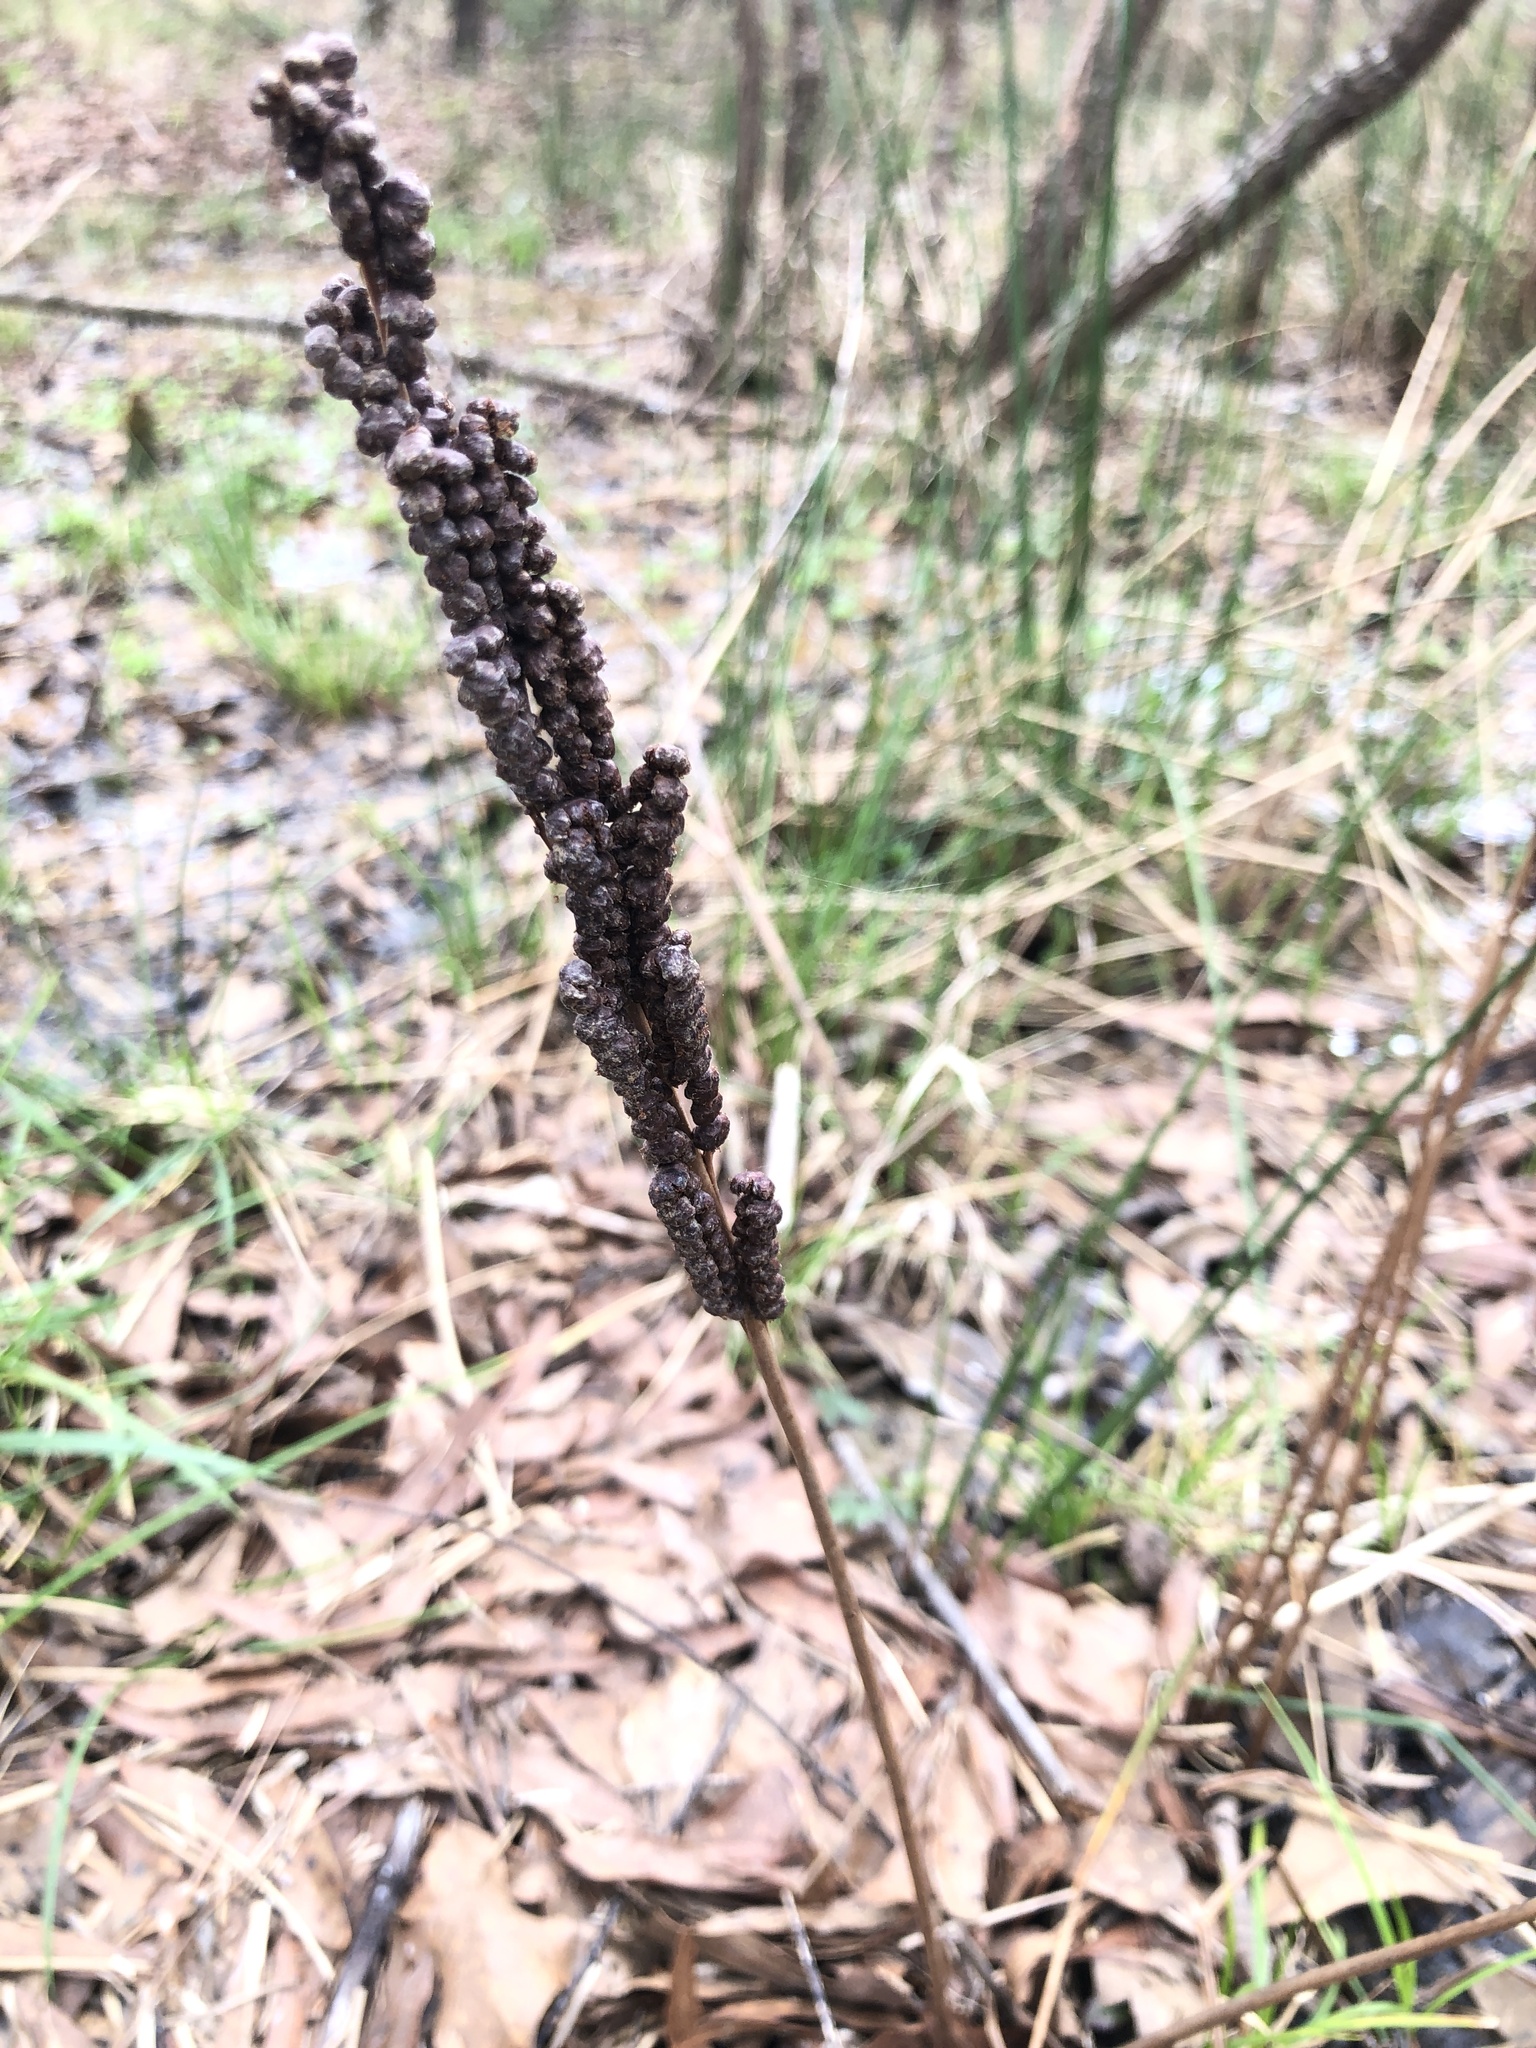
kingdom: Plantae
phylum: Tracheophyta
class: Polypodiopsida
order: Polypodiales
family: Onocleaceae
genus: Onoclea
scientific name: Onoclea sensibilis
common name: Sensitive fern
